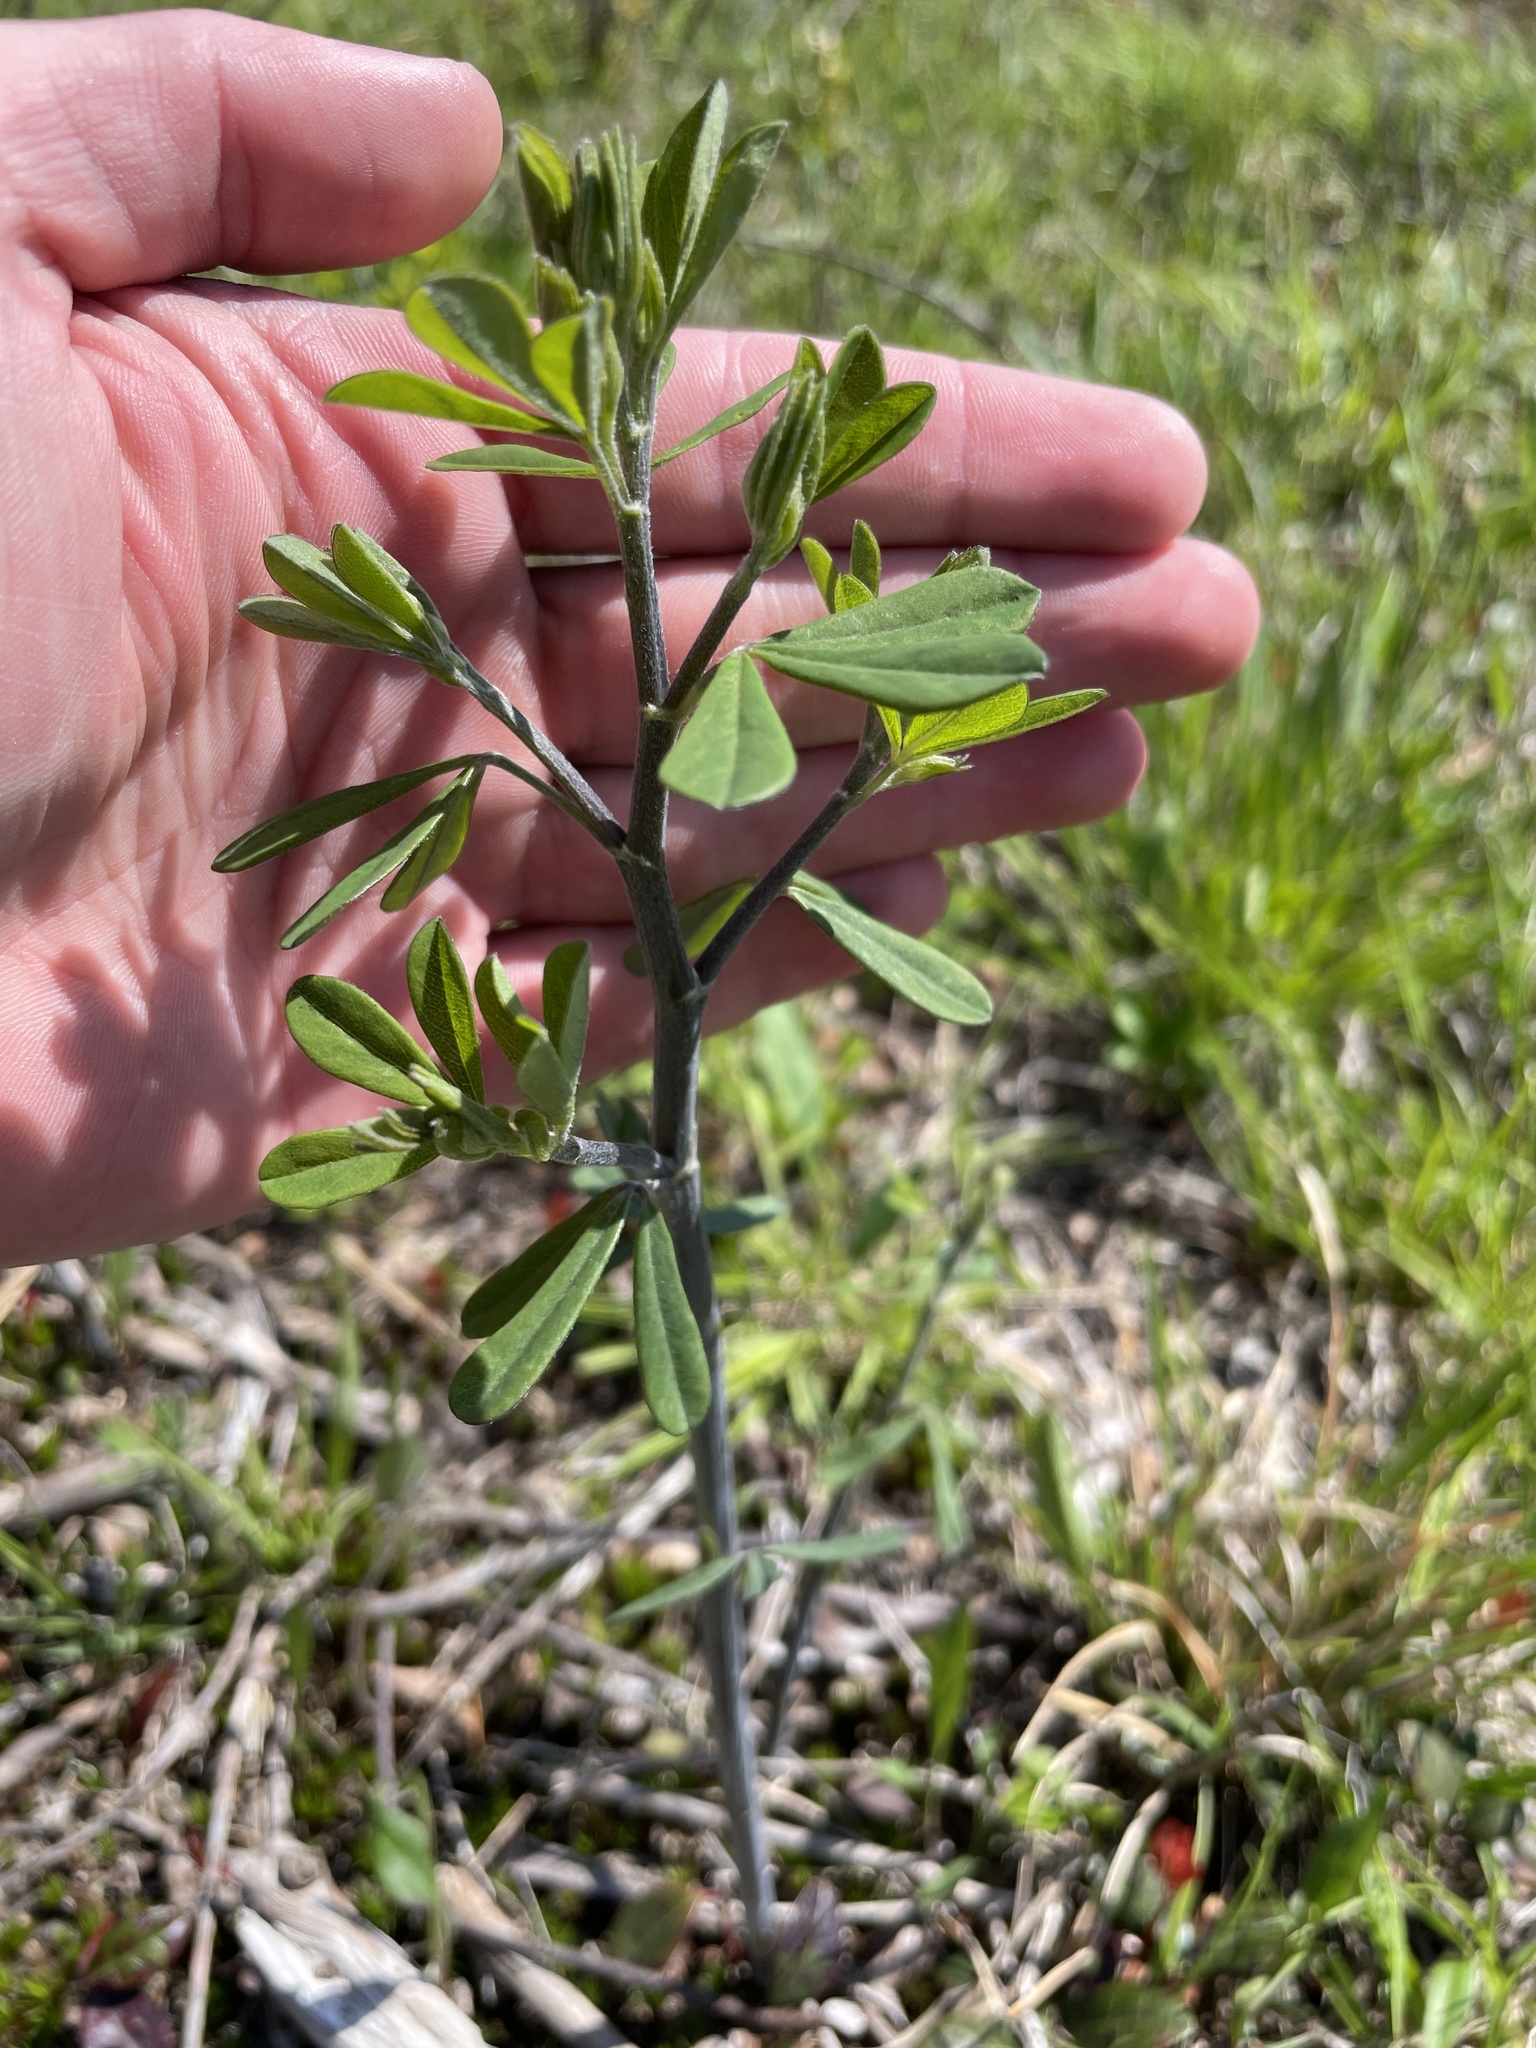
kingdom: Plantae
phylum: Tracheophyta
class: Magnoliopsida
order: Fabales
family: Fabaceae
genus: Baptisia
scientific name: Baptisia tinctoria
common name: Wild indigo
